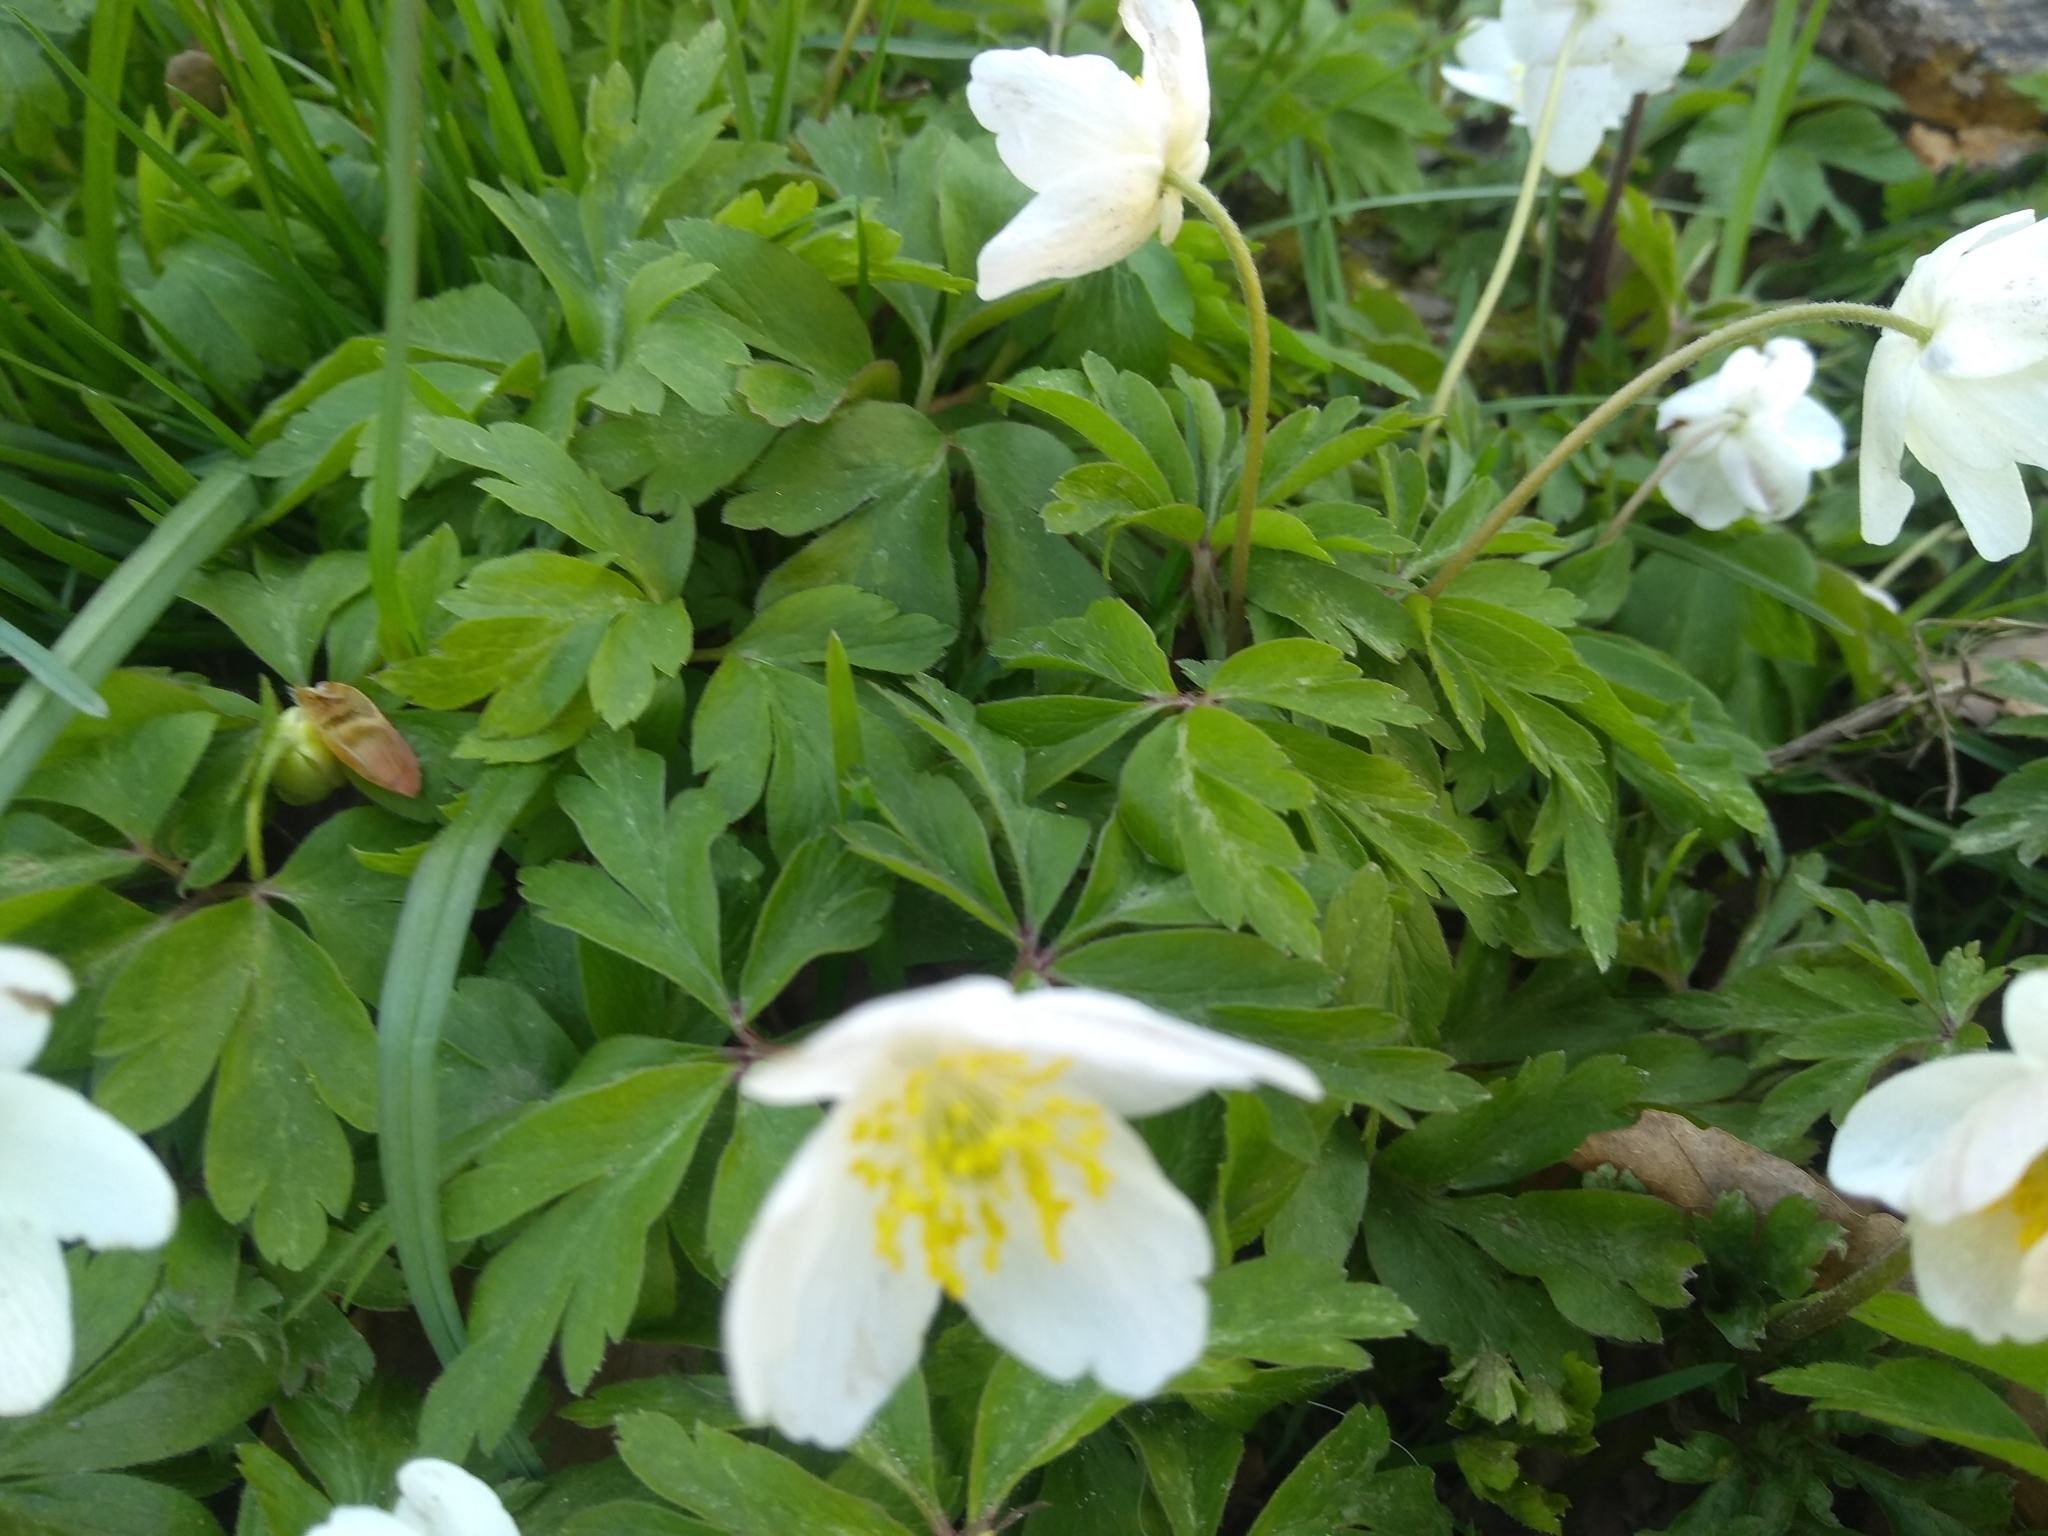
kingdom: Plantae
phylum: Tracheophyta
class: Magnoliopsida
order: Ranunculales
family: Ranunculaceae
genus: Anemone
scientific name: Anemone nemorosa
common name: Wood anemone
